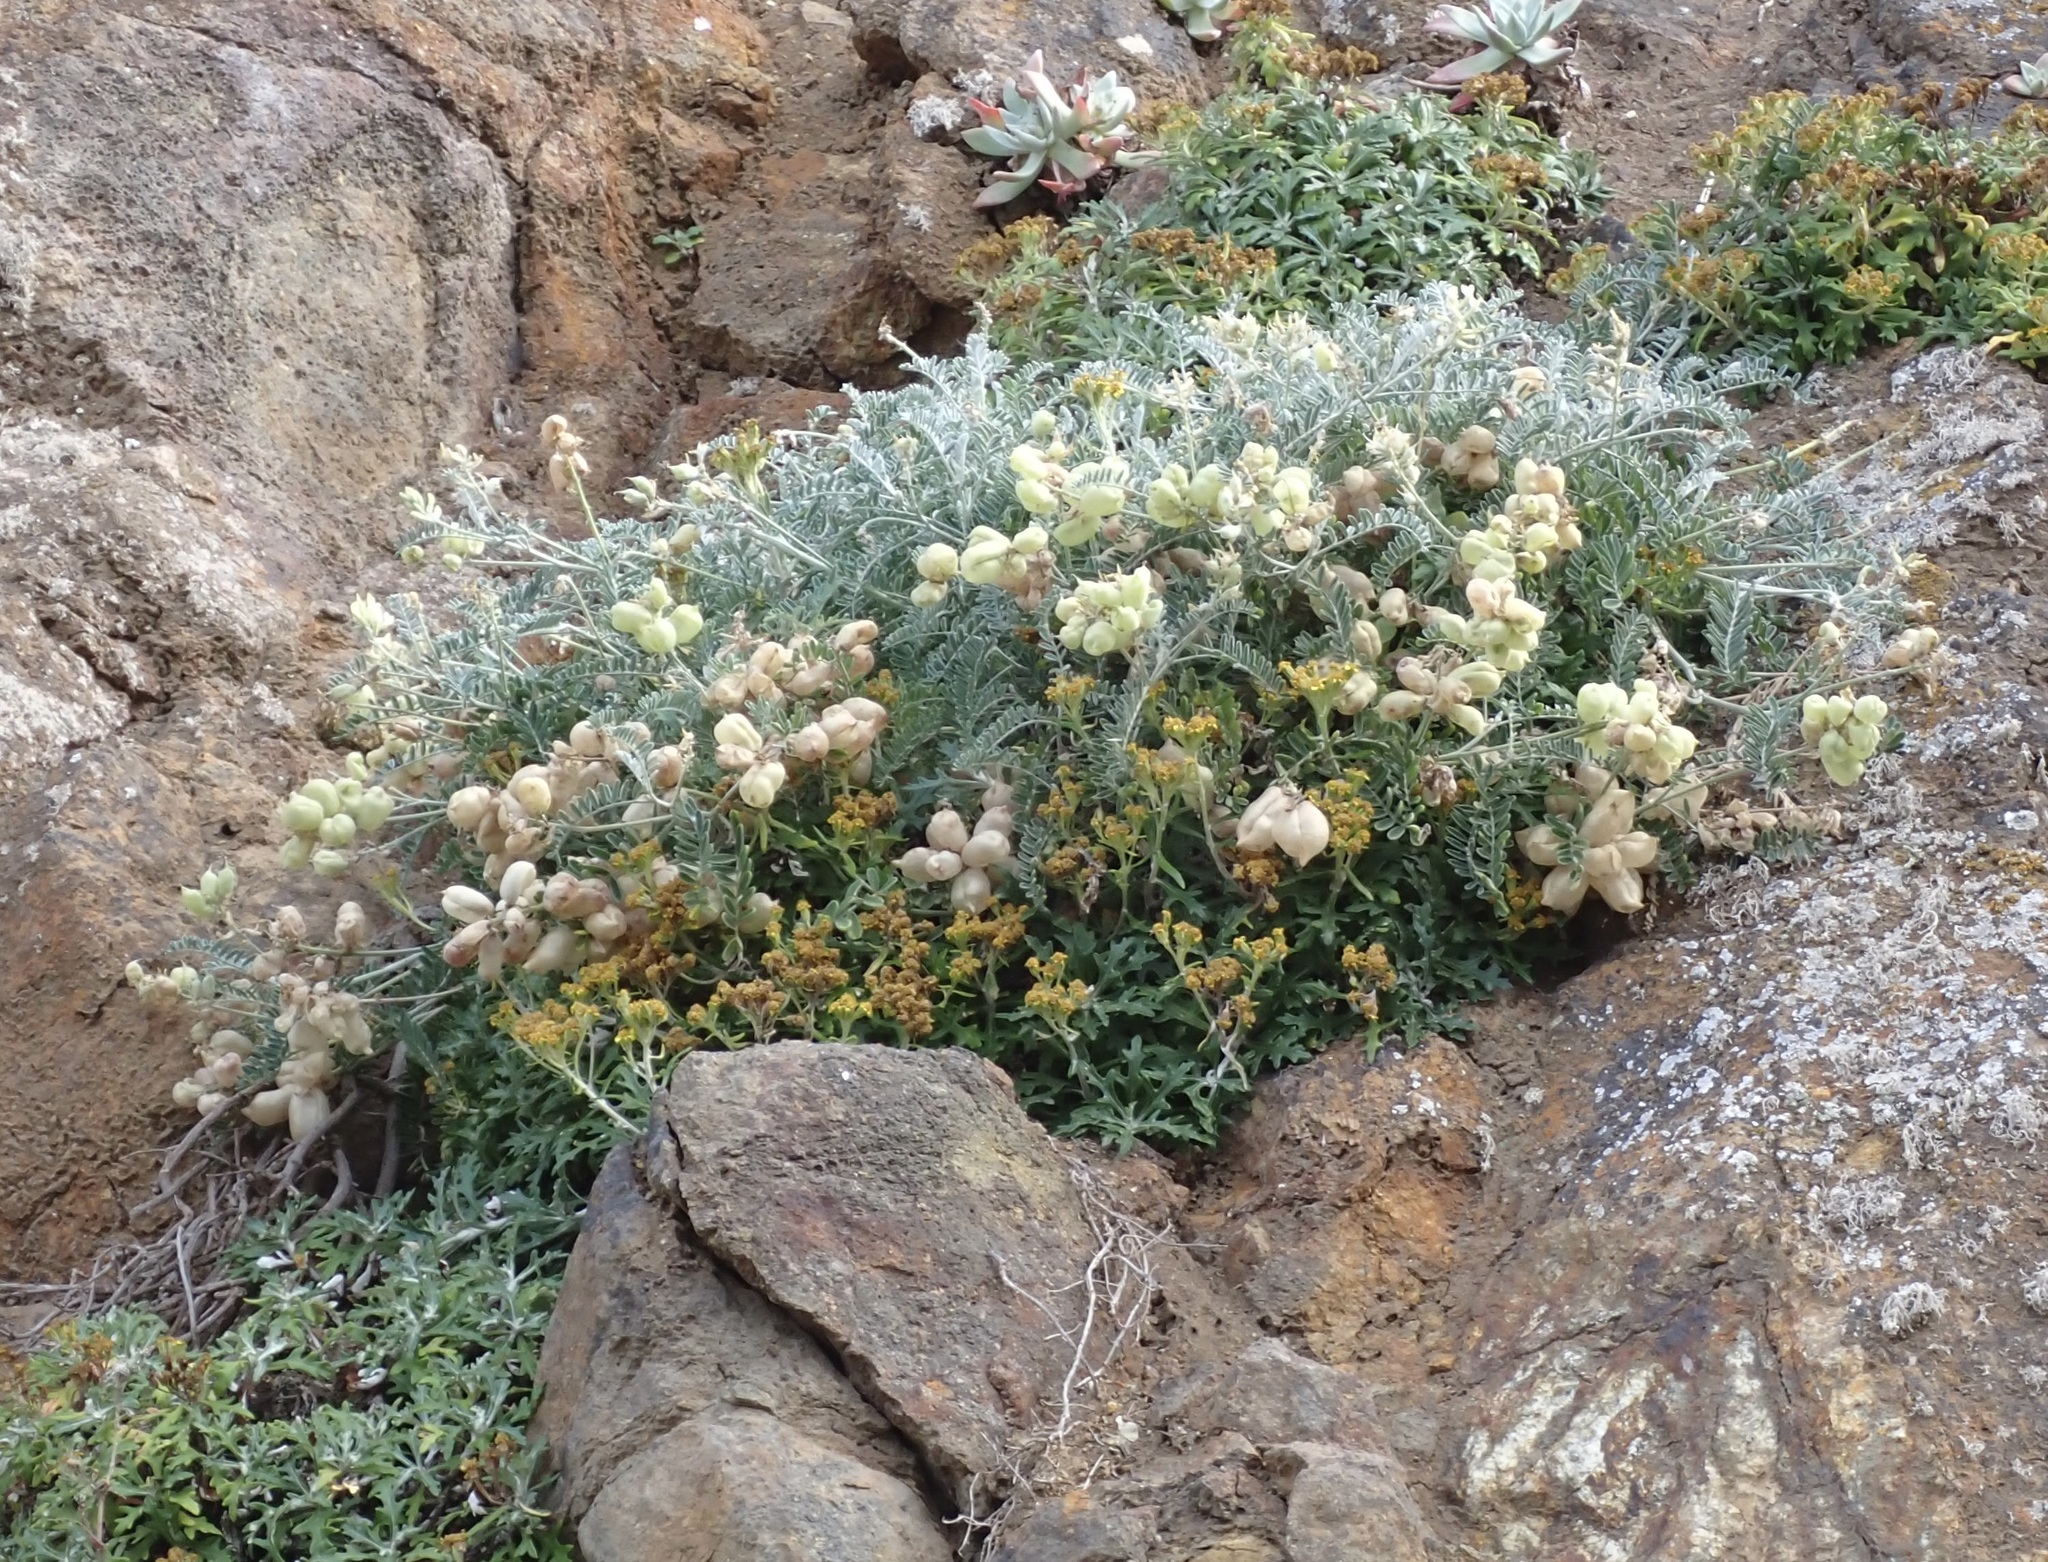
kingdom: Plantae
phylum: Tracheophyta
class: Magnoliopsida
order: Fabales
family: Fabaceae
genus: Astragalus
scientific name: Astragalus miguelensis
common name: San miguel milk-vetch
